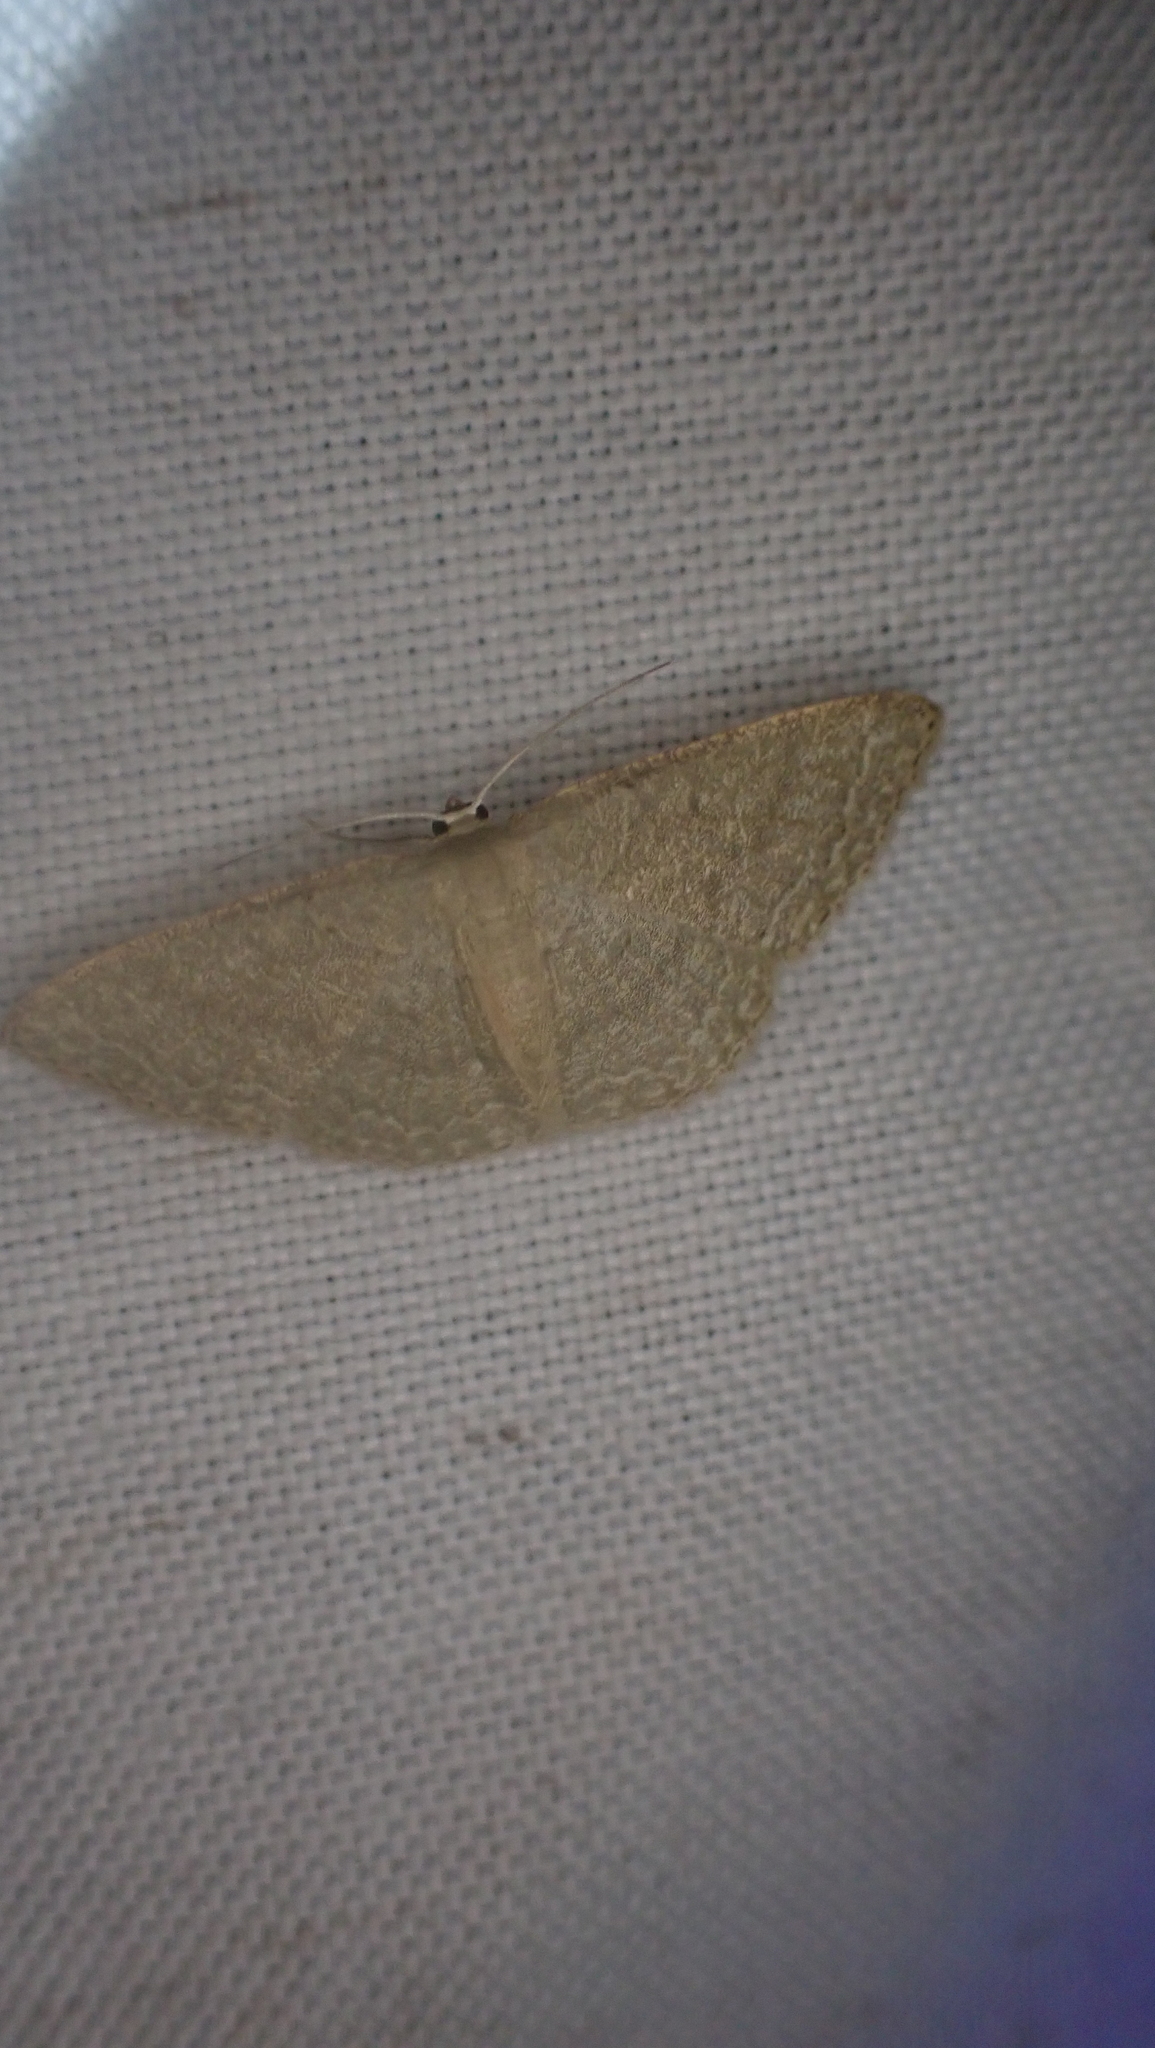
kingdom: Animalia
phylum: Arthropoda
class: Insecta
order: Lepidoptera
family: Geometridae
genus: Pleuroprucha
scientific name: Pleuroprucha insulsaria
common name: Common tan wave
